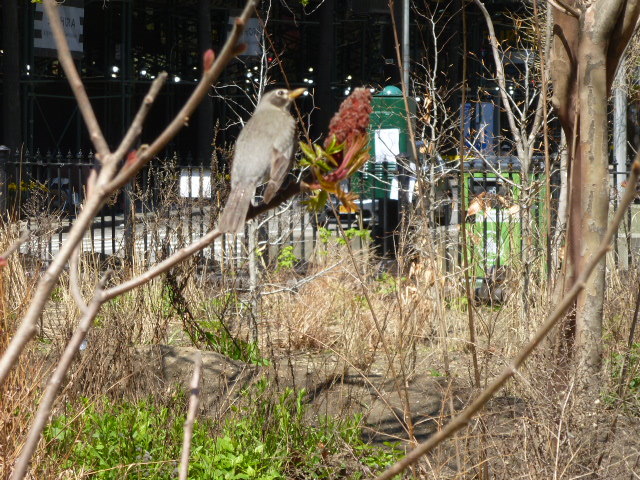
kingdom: Animalia
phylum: Chordata
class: Aves
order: Passeriformes
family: Turdidae
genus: Turdus
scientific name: Turdus migratorius
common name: American robin
